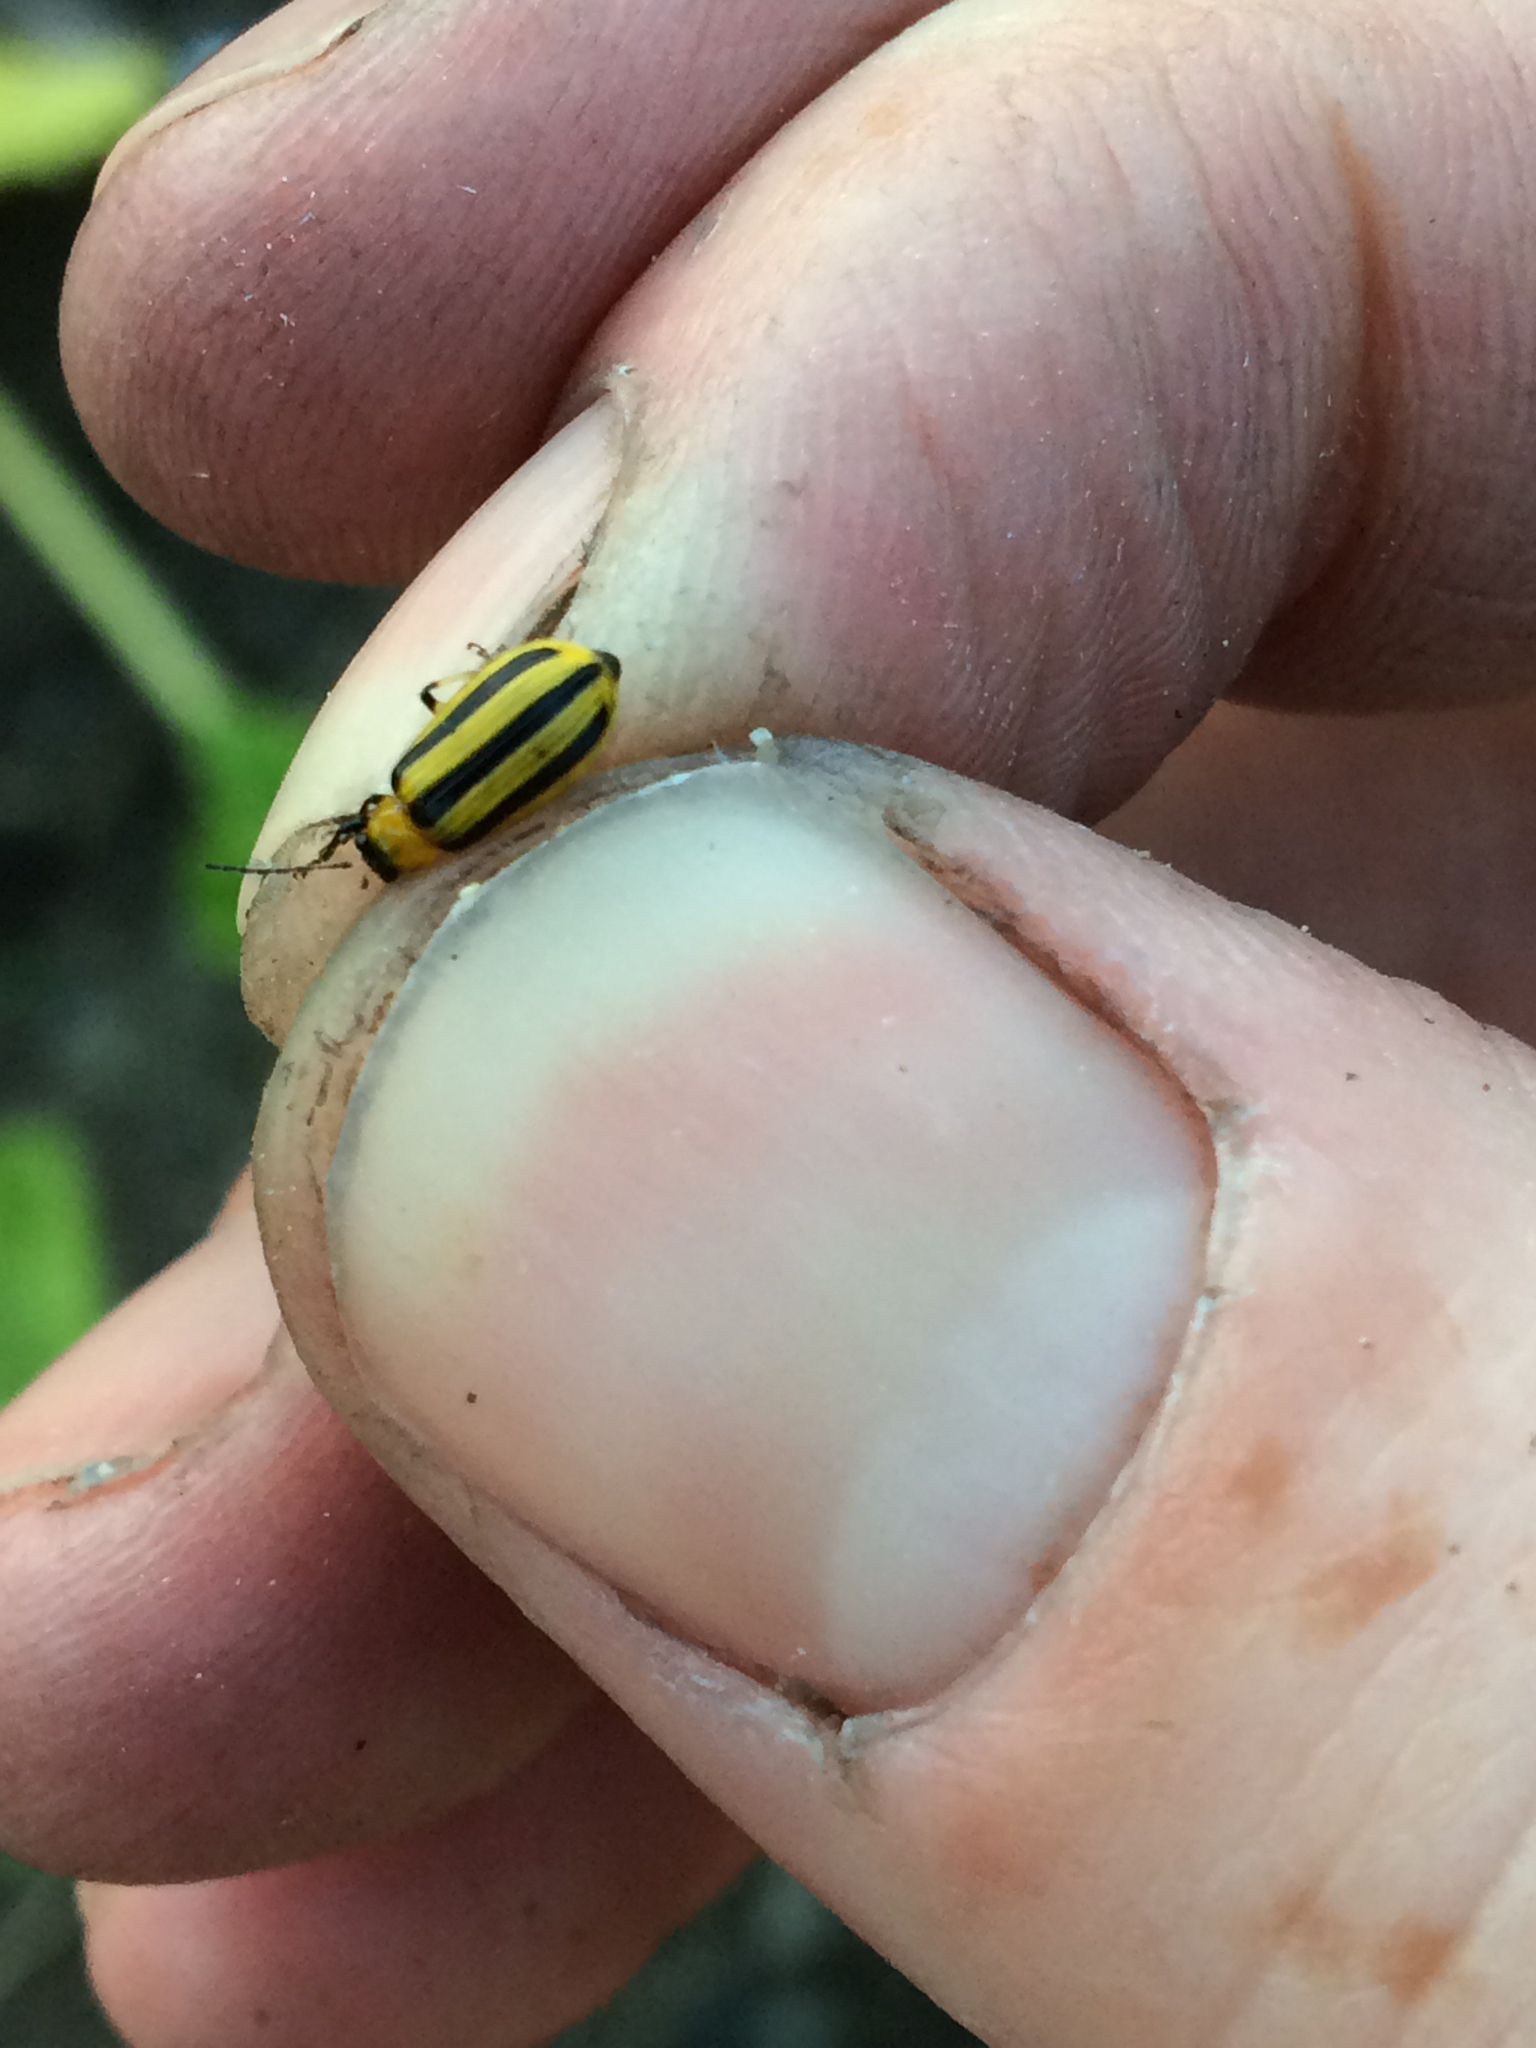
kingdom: Animalia
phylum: Arthropoda
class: Insecta
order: Coleoptera
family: Chrysomelidae
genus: Acalymma
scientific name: Acalymma vittatum
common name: Striped cucumber beetle
